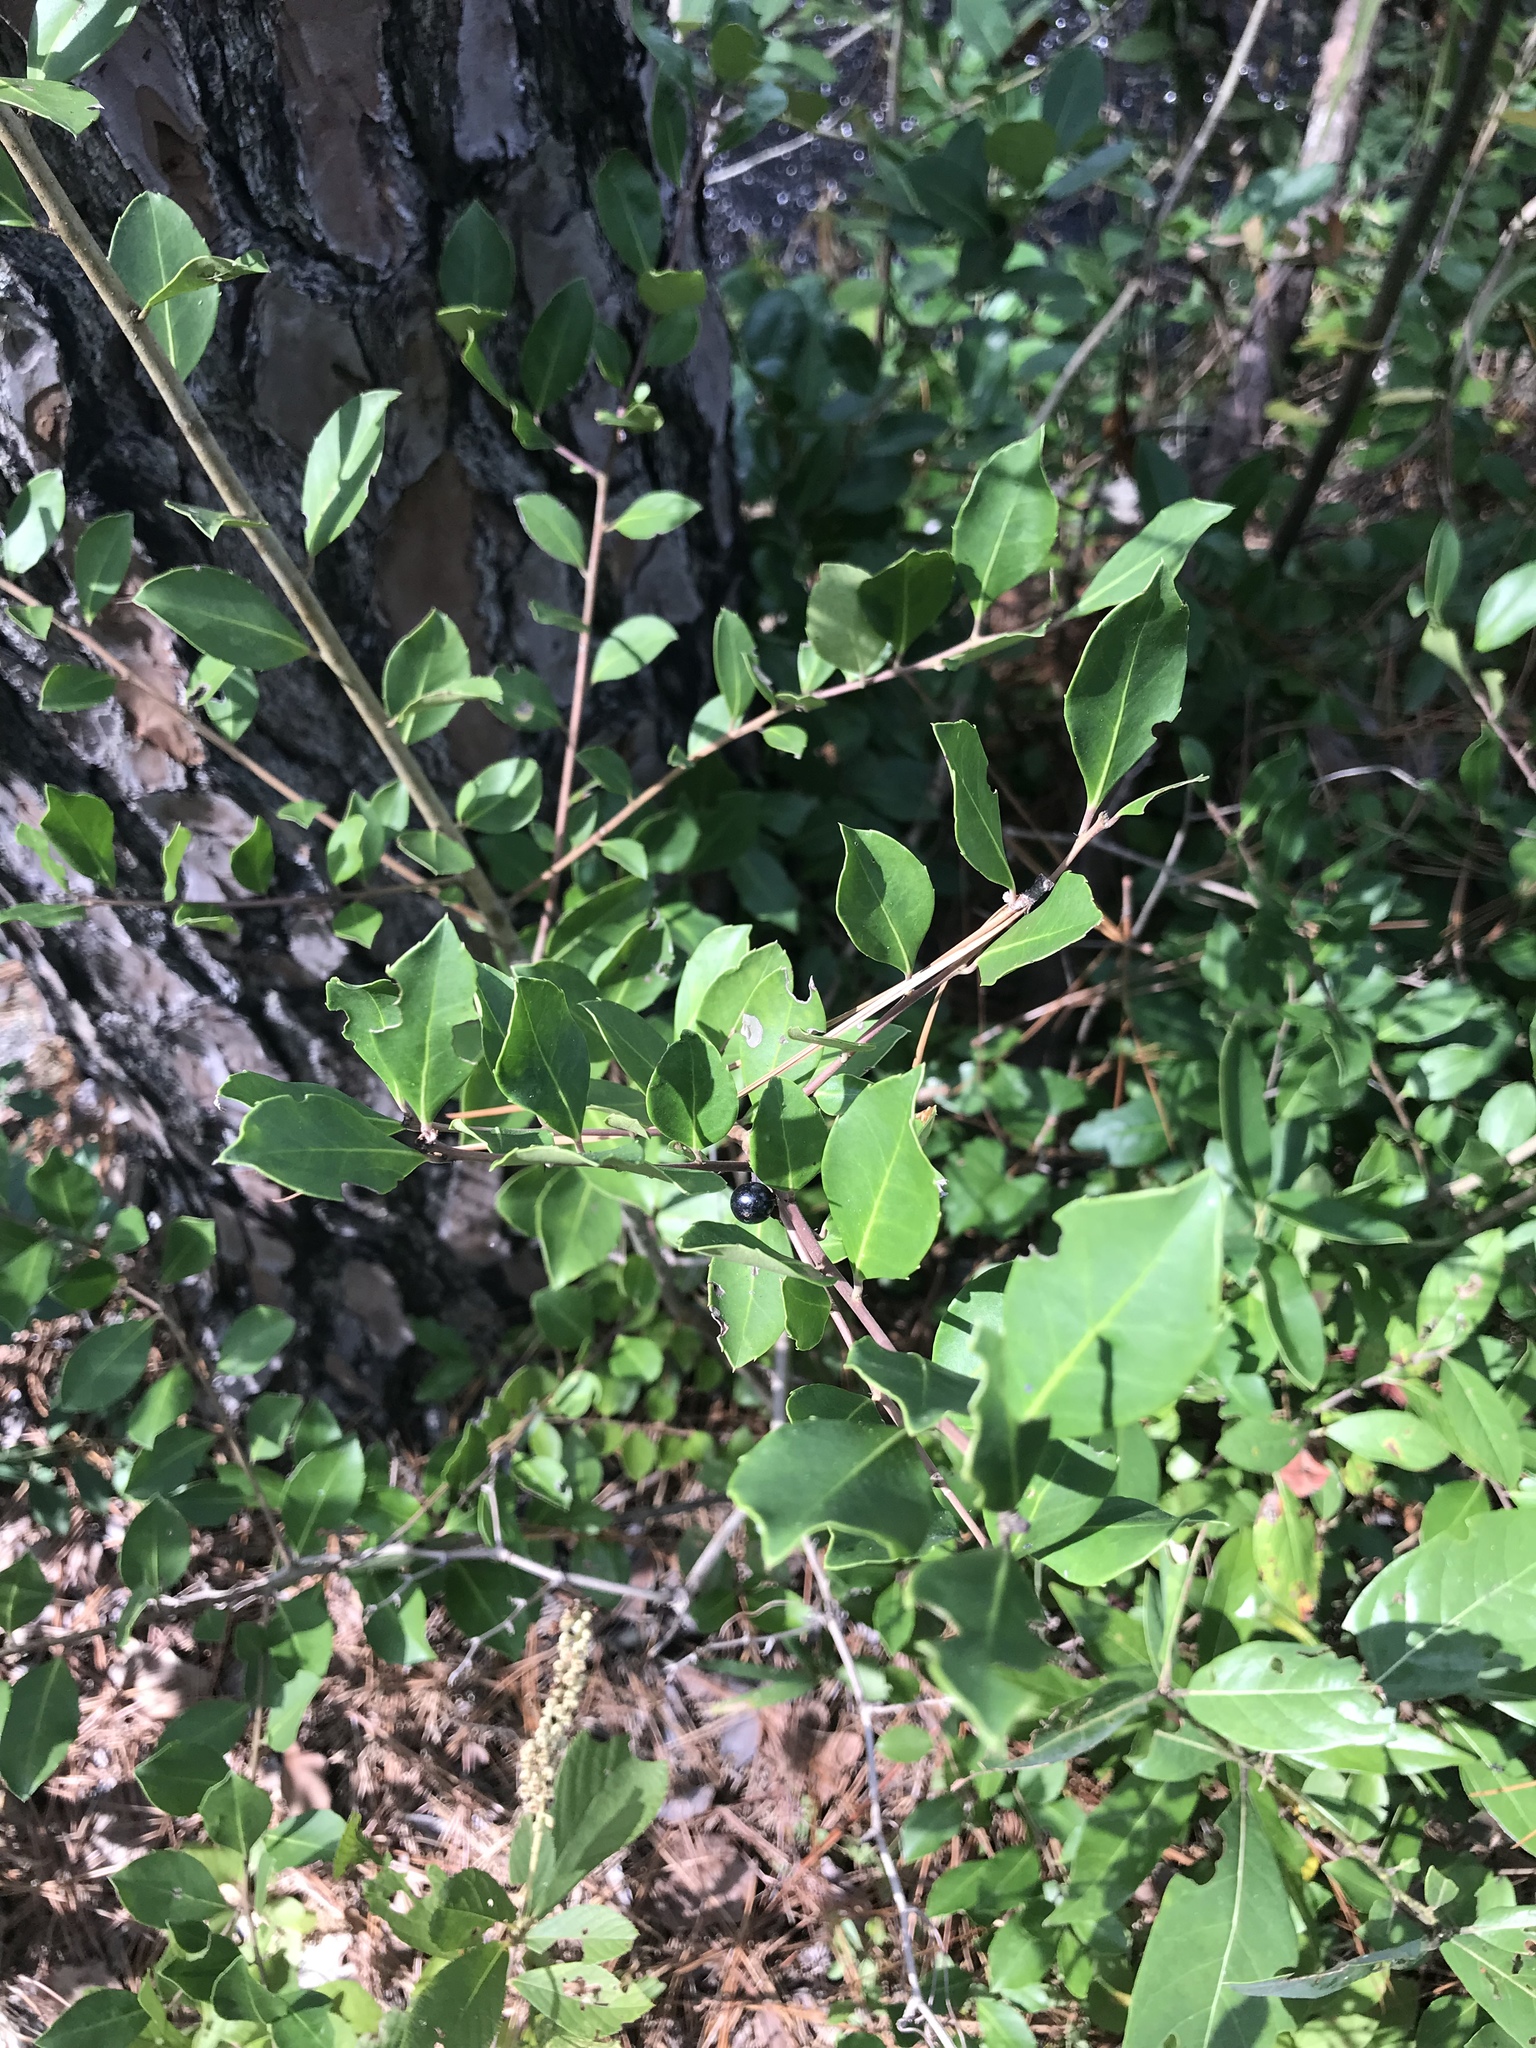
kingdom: Plantae
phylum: Tracheophyta
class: Magnoliopsida
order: Aquifoliales
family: Aquifoliaceae
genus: Ilex
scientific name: Ilex glabra
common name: Bitter gallberry
